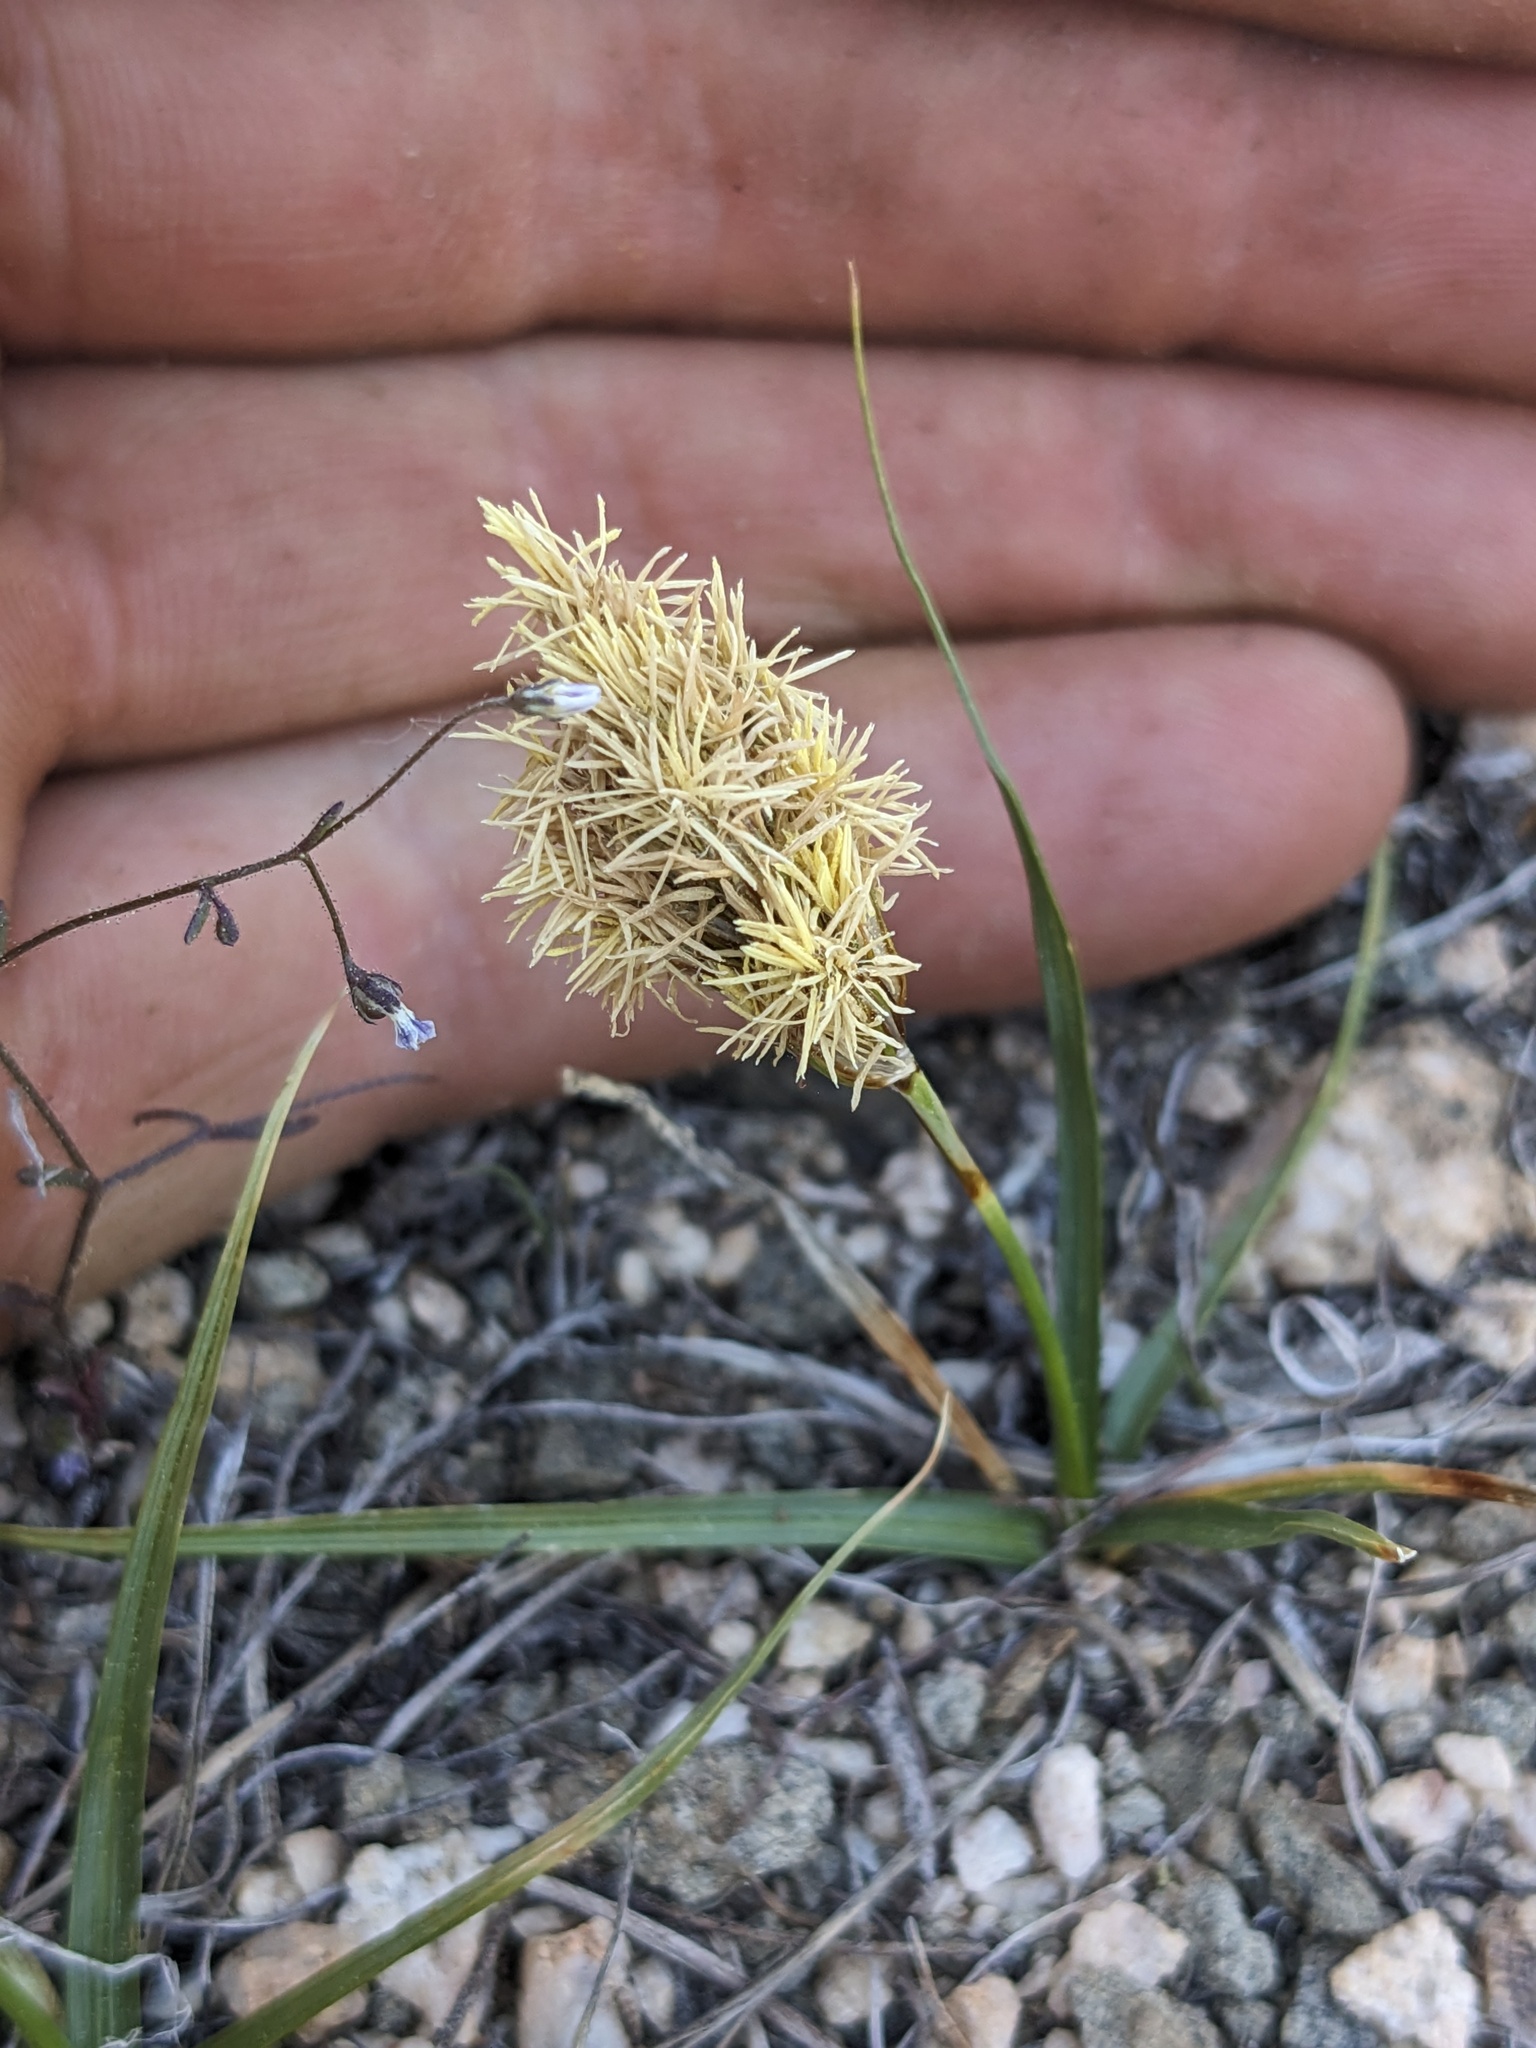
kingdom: Plantae
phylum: Tracheophyta
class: Liliopsida
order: Poales
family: Cyperaceae
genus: Carex
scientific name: Carex douglasii
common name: Douglas' sedge
